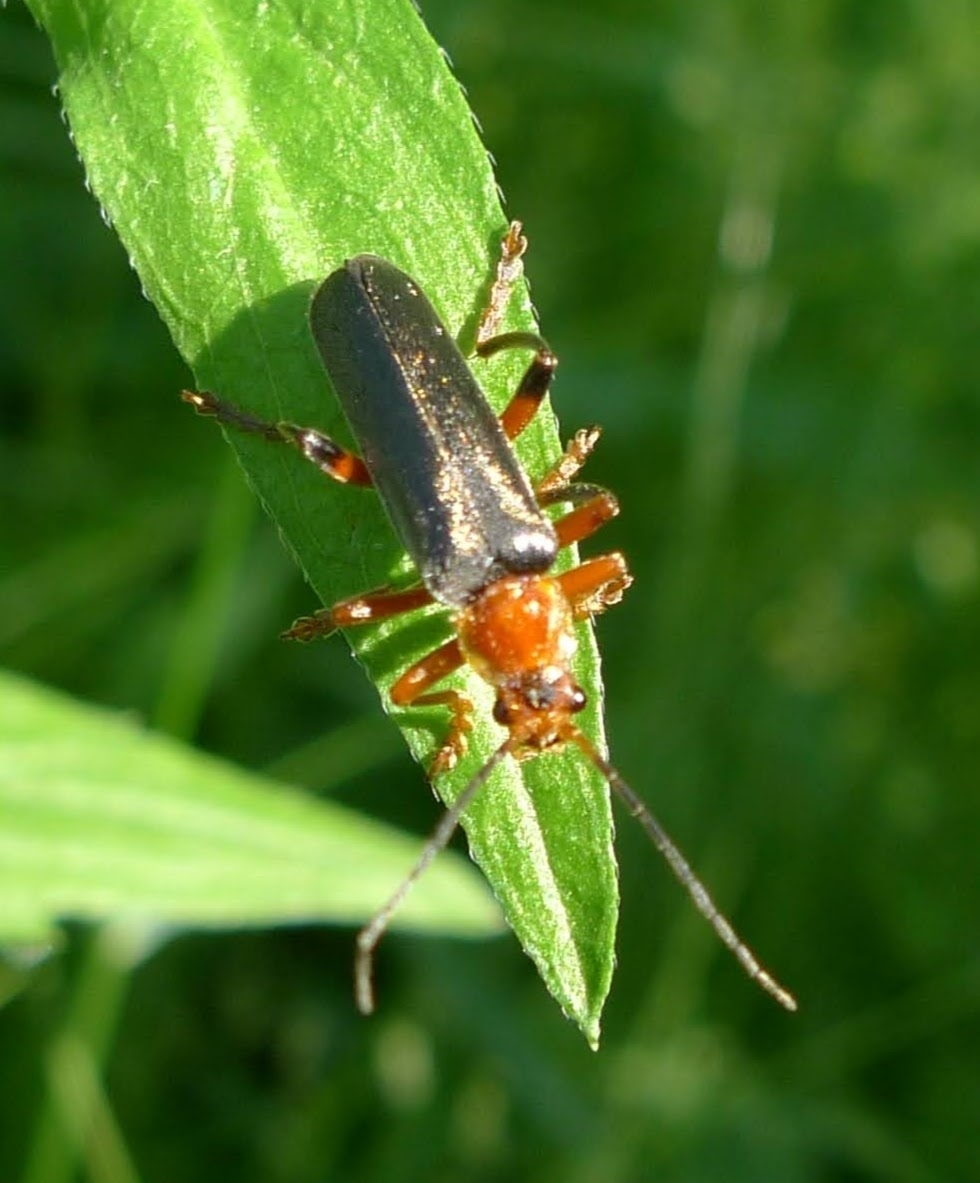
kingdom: Animalia
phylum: Arthropoda
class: Insecta
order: Coleoptera
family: Cantharidae
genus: Cantharis
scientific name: Cantharis livida
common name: Livid soldier beetle
